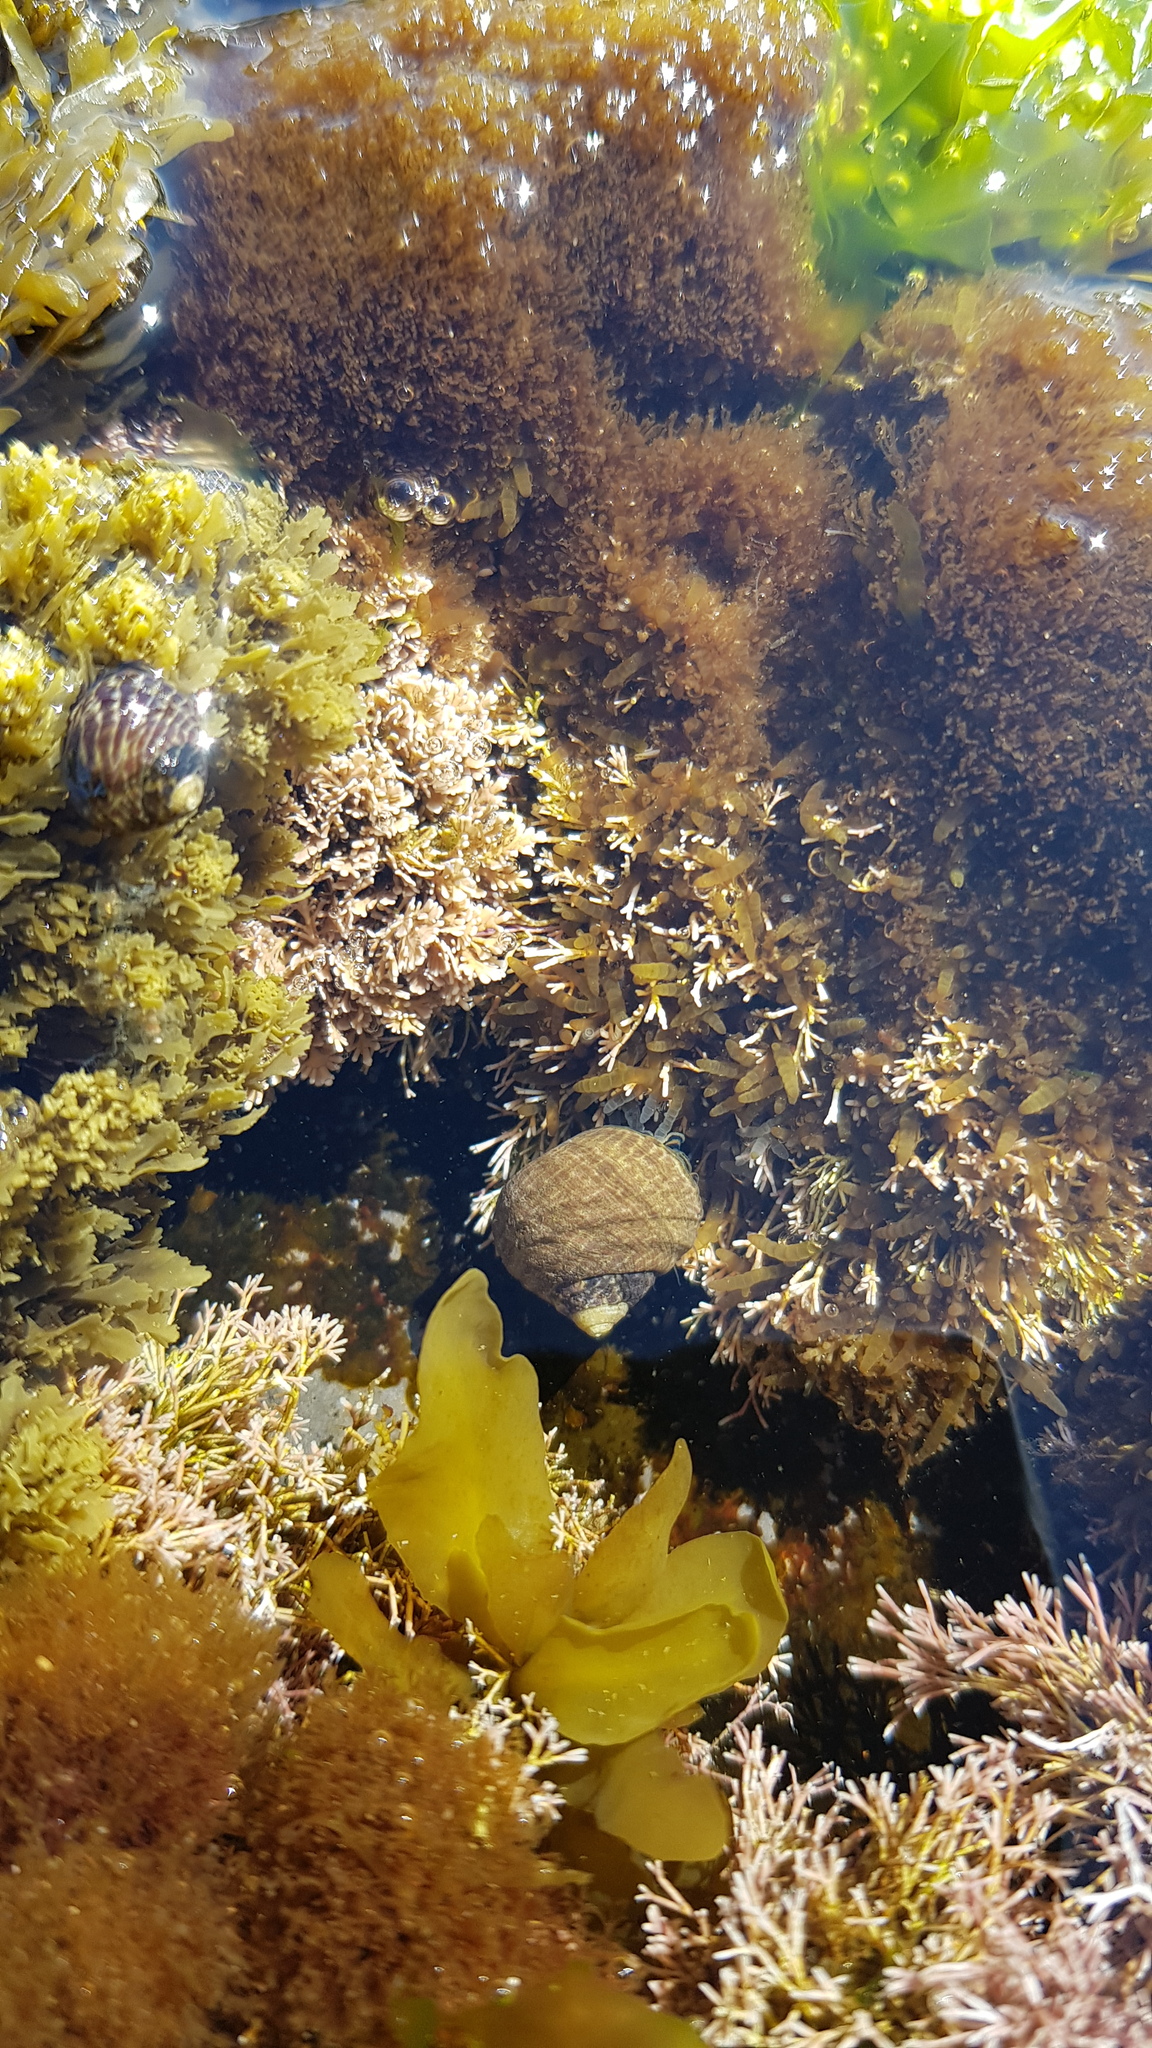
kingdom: Animalia
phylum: Mollusca
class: Gastropoda
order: Trochida
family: Trochidae
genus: Austrocochlea
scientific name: Austrocochlea porcata
